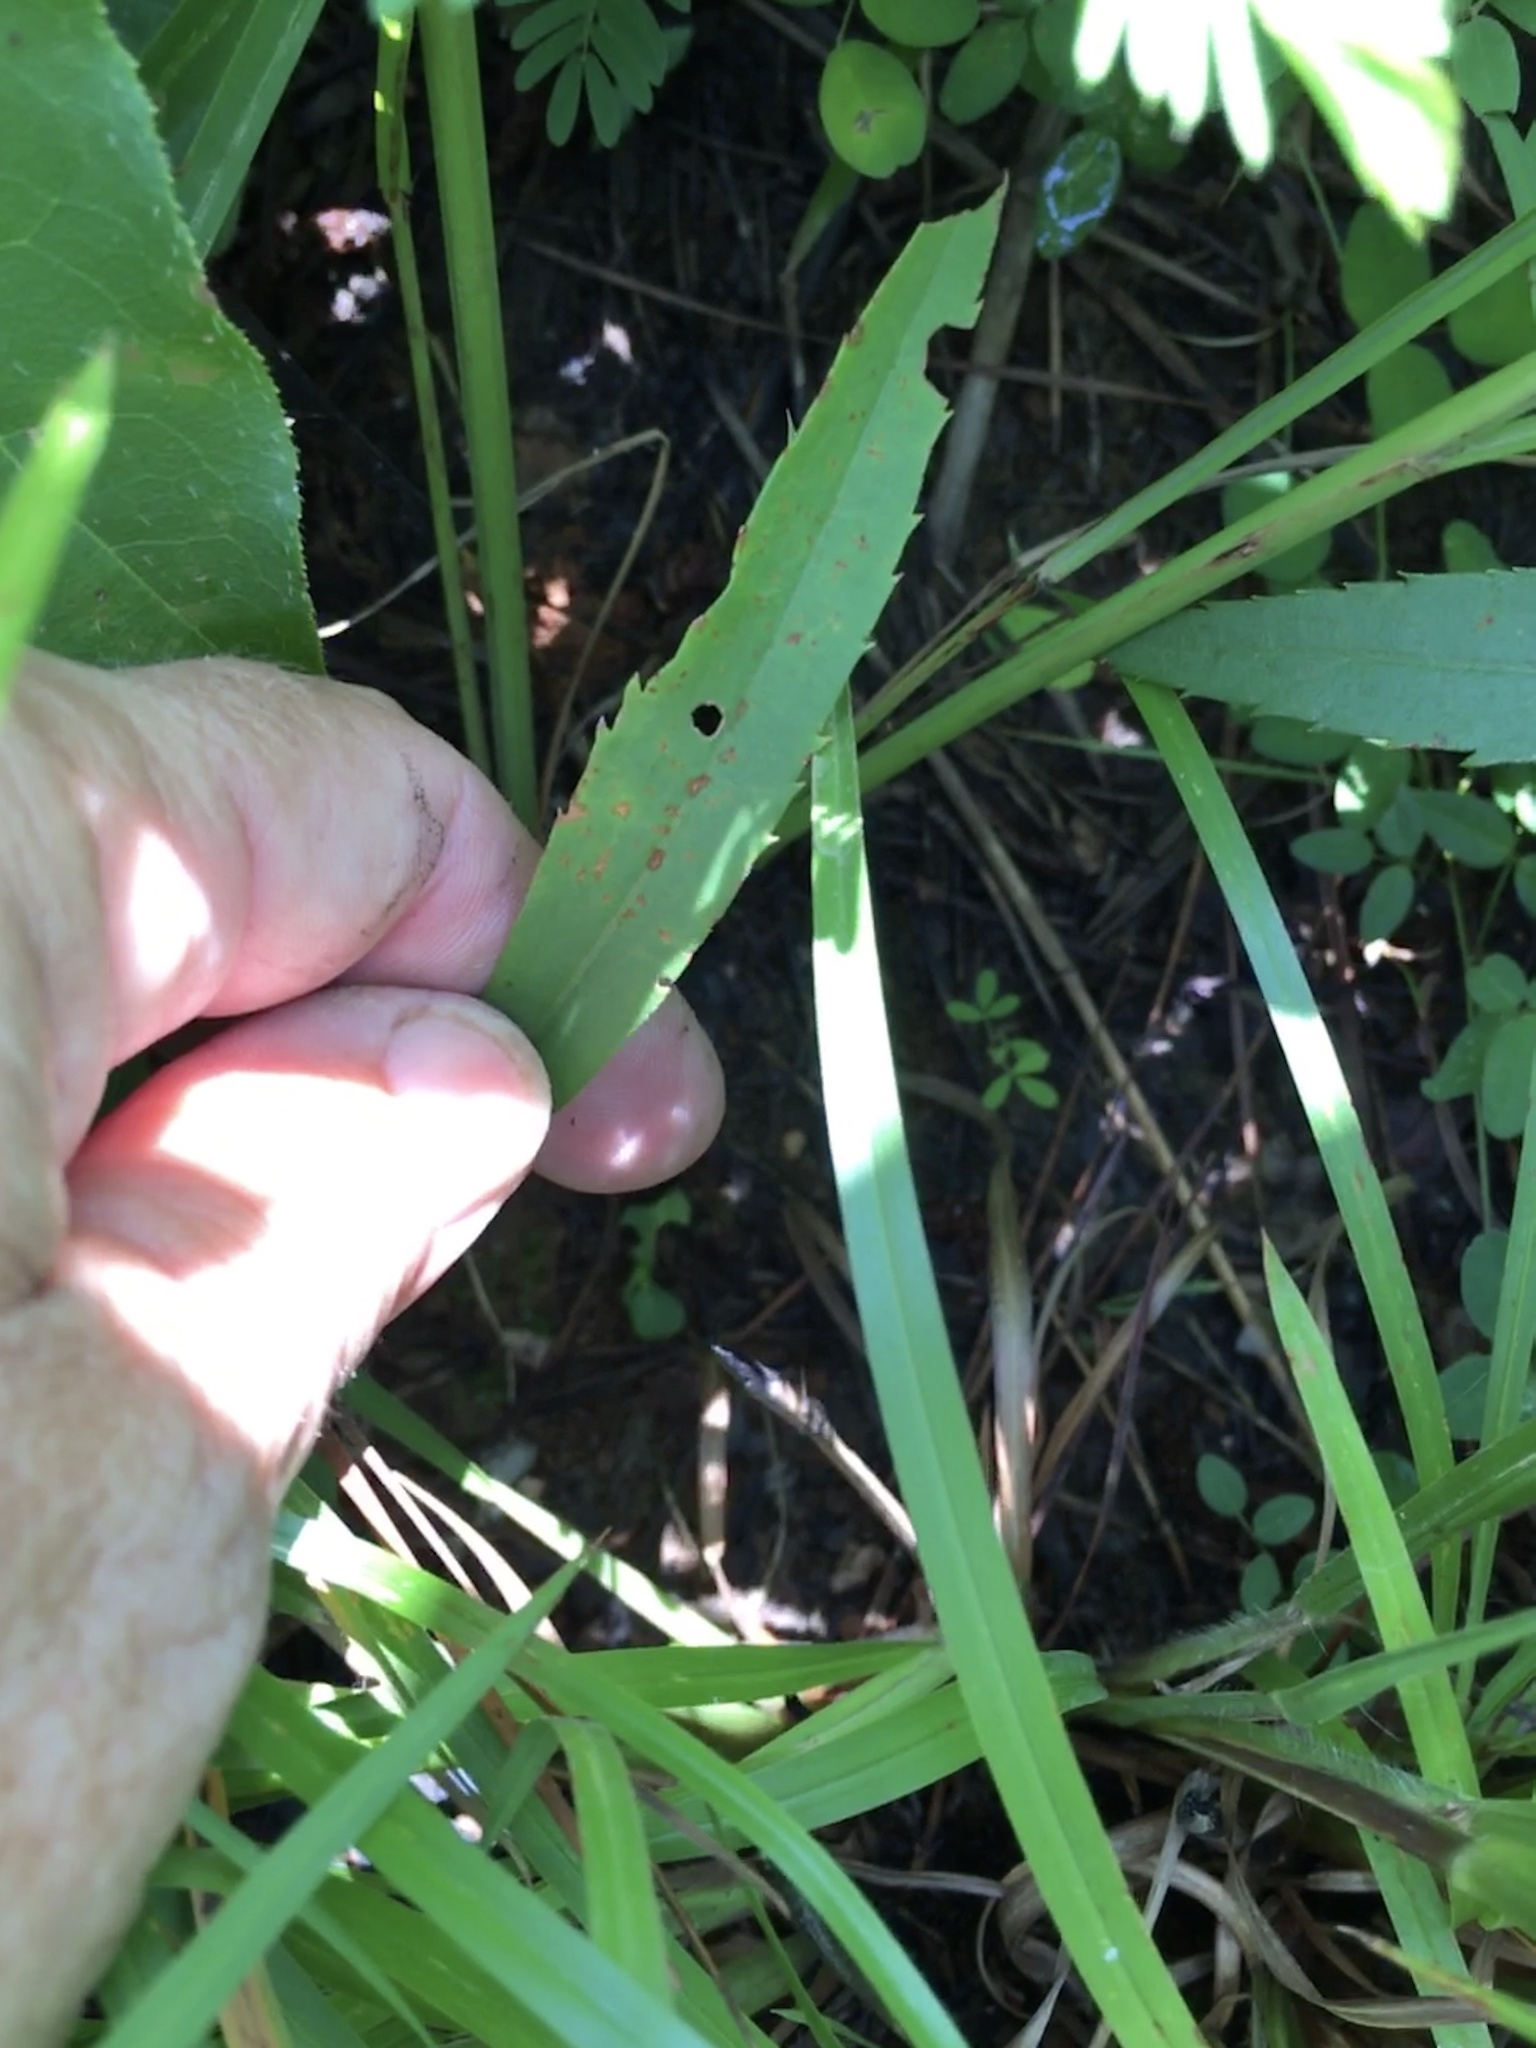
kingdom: Plantae
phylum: Tracheophyta
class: Magnoliopsida
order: Asterales
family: Asteraceae
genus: Solidago
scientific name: Solidago pinetorum
